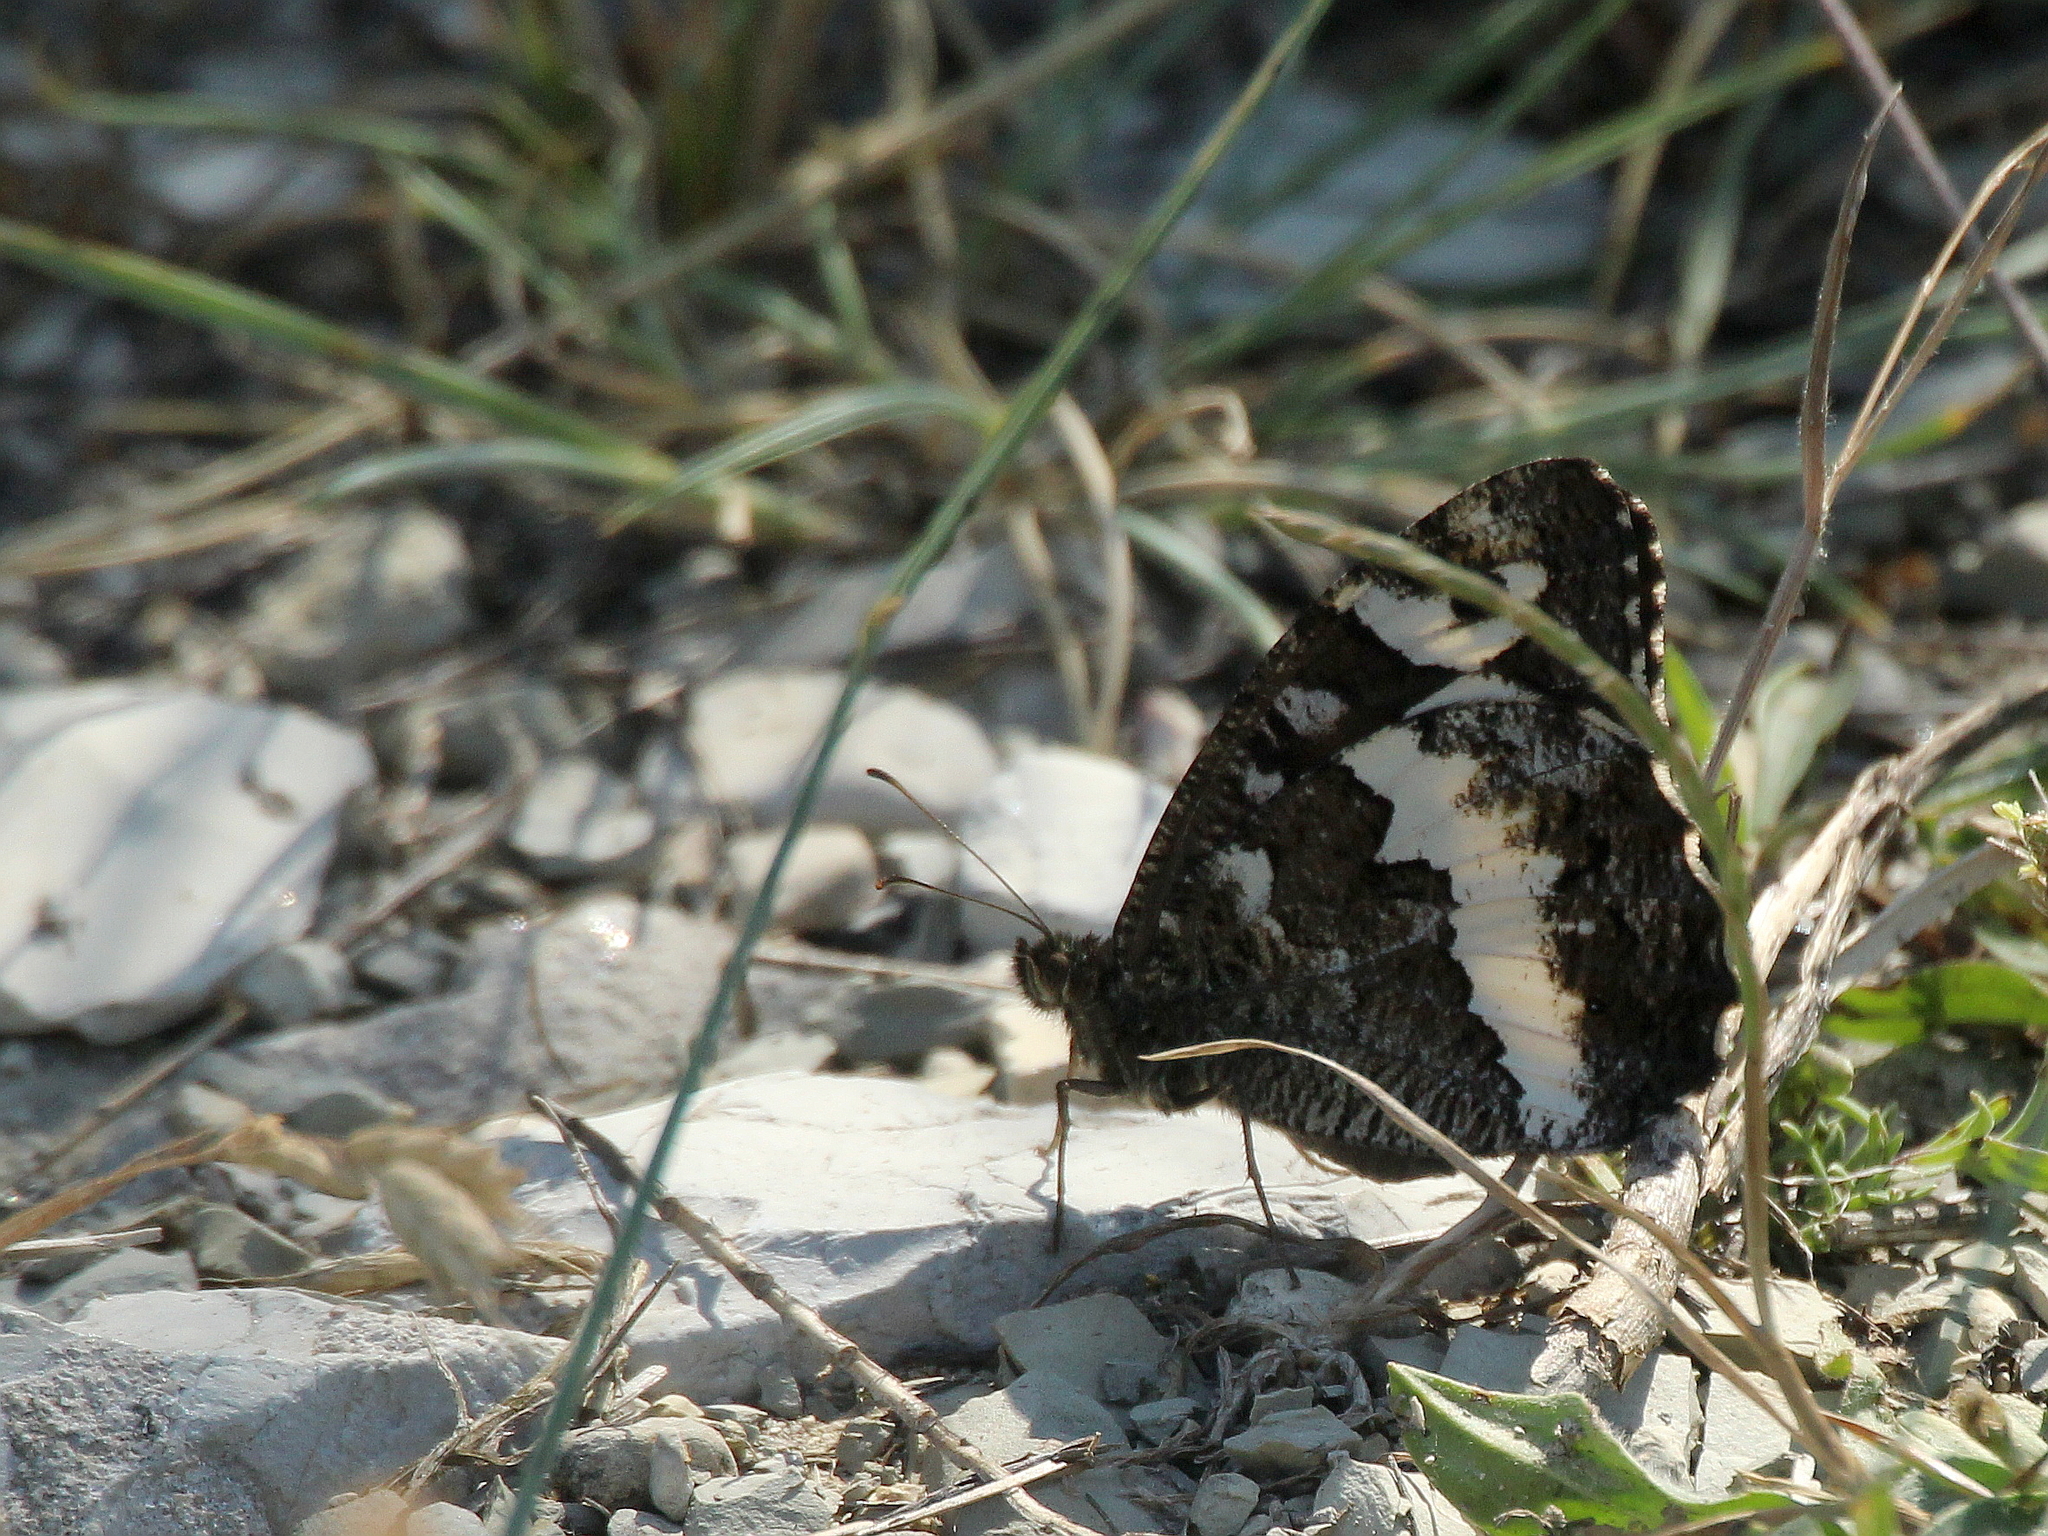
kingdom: Animalia
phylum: Arthropoda
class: Insecta
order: Lepidoptera
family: Lycaenidae
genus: Loweia
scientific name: Loweia tityrus
